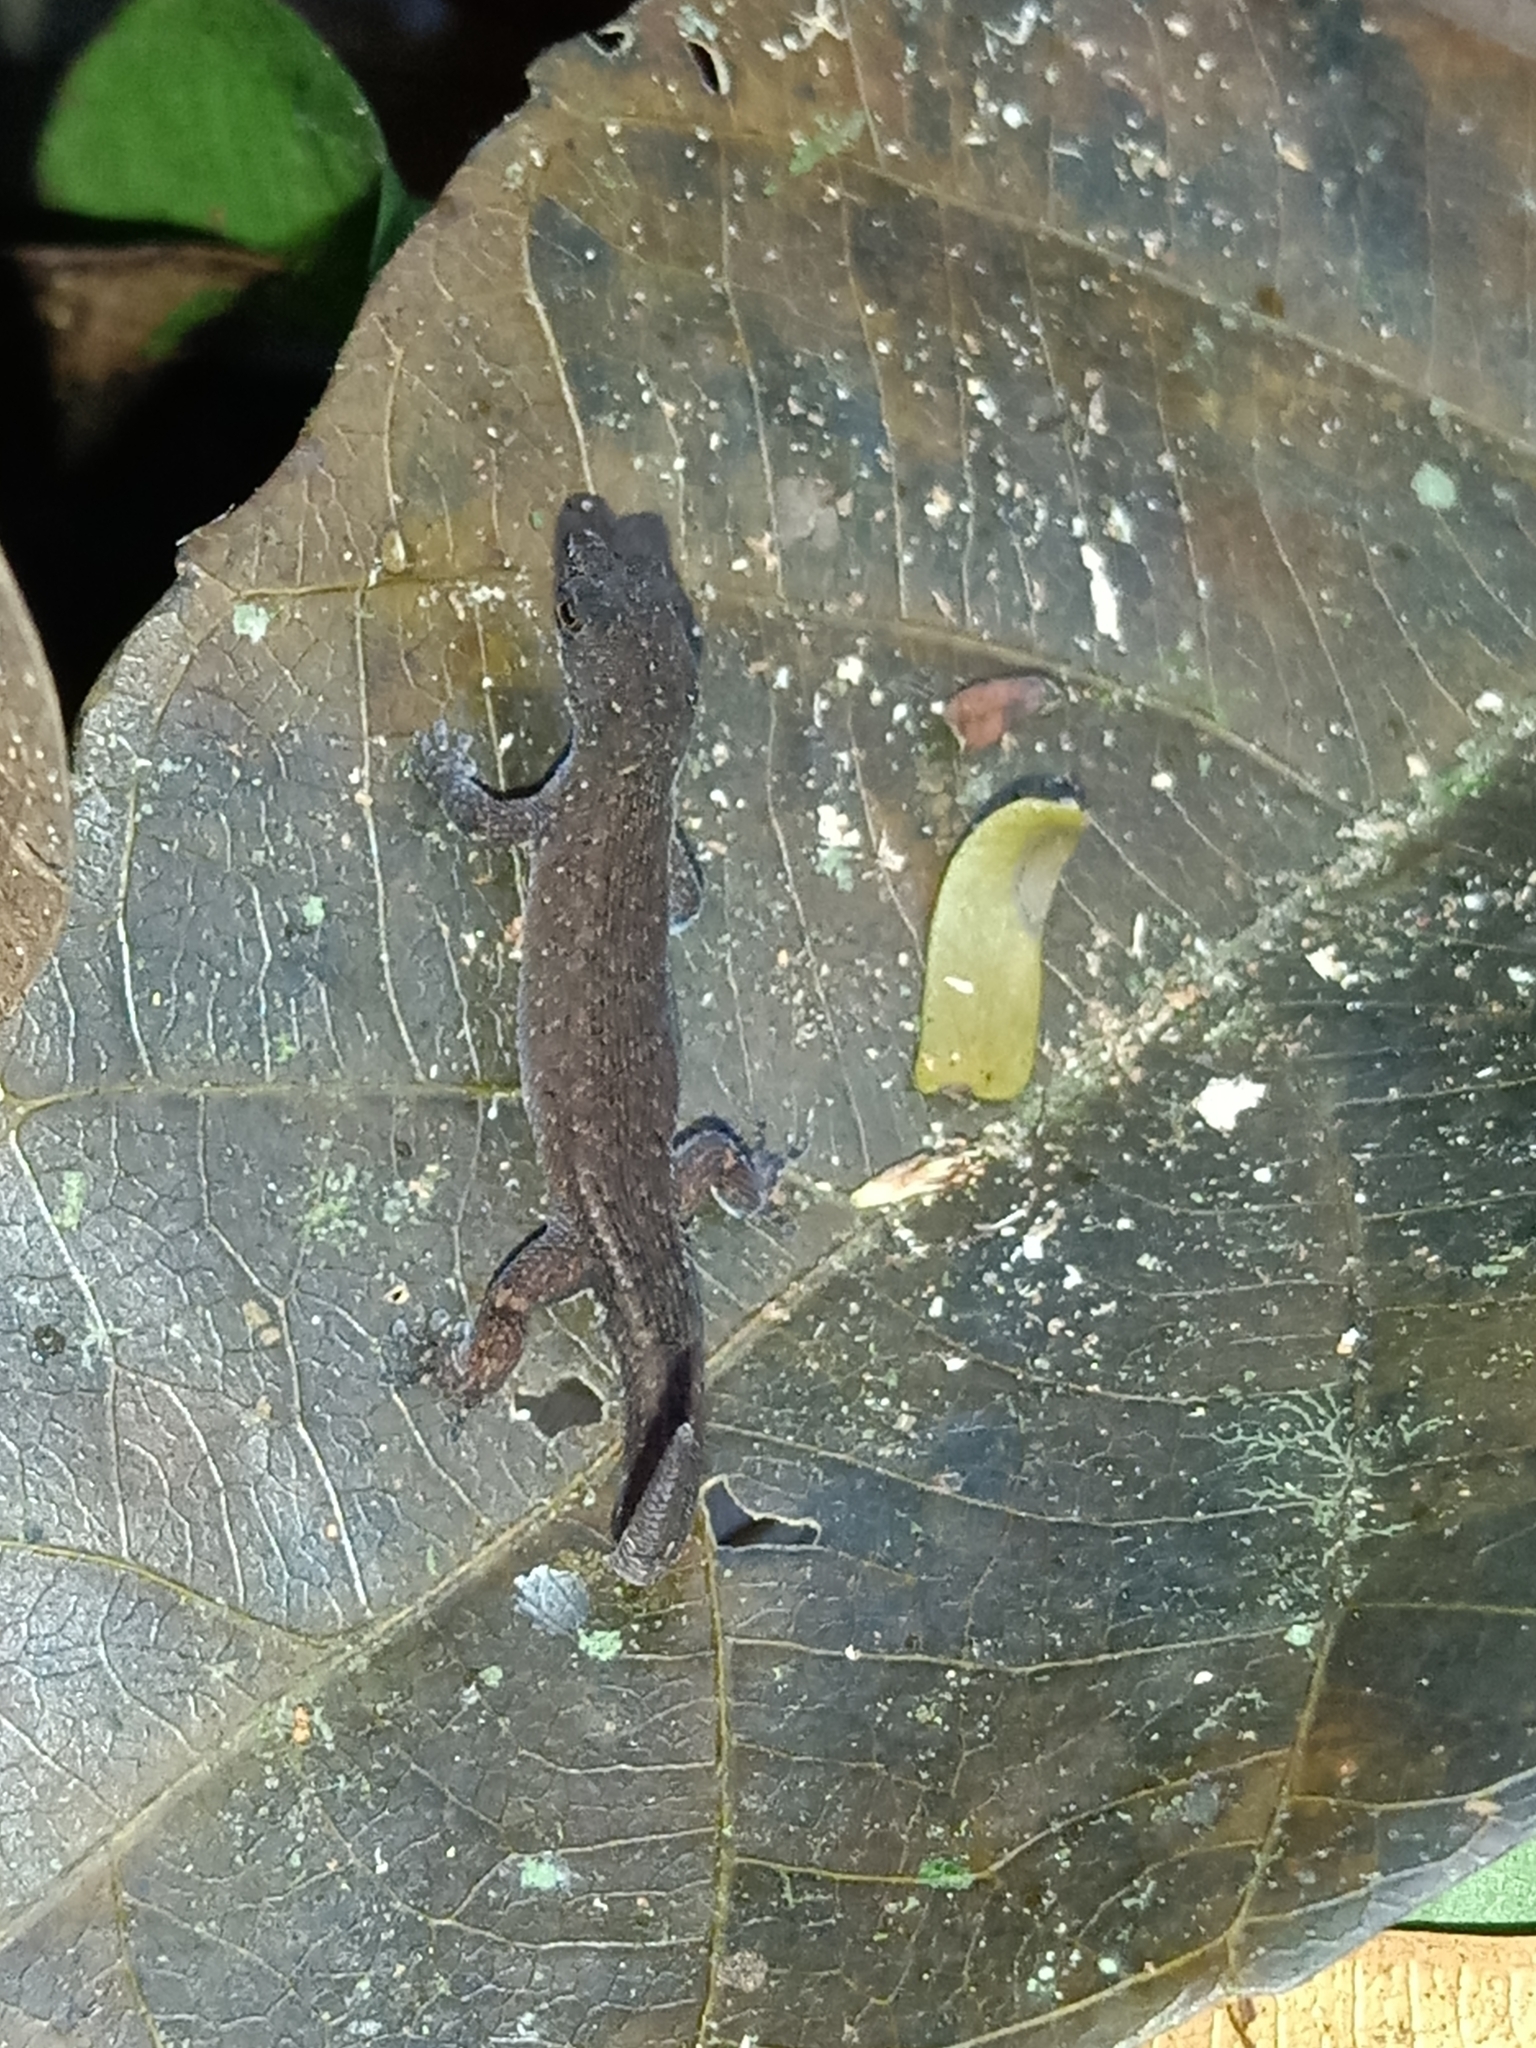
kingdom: Animalia
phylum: Chordata
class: Squamata
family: Sphaerodactylidae
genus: Chatogekko
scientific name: Chatogekko amazonicus
